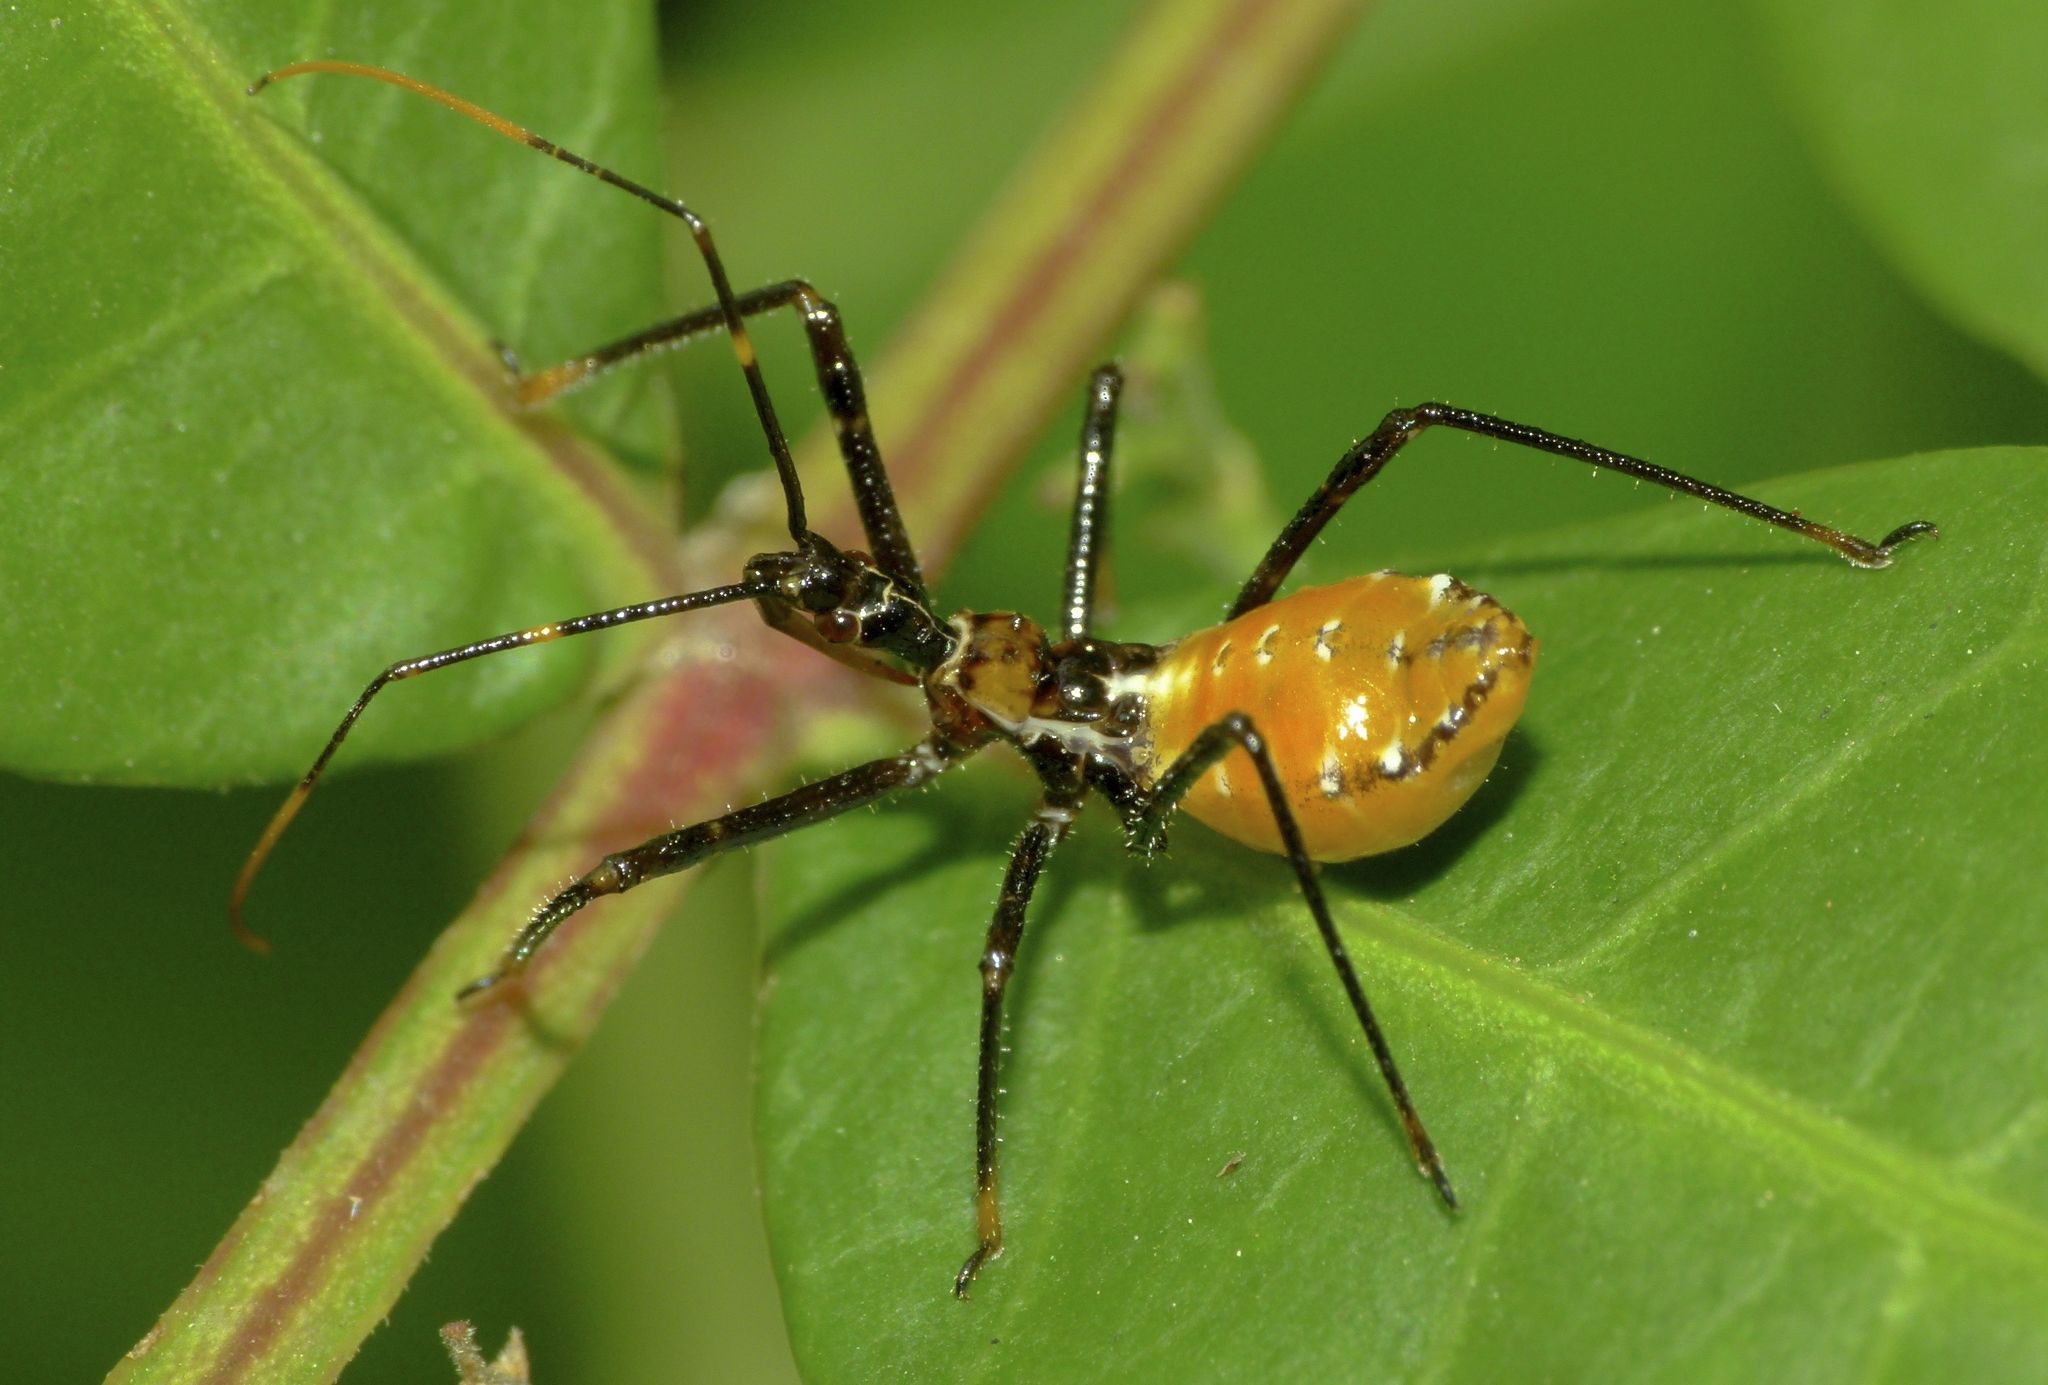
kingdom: Animalia
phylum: Arthropoda
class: Insecta
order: Hemiptera
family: Reduviidae
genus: Pristhesancus
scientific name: Pristhesancus plagipennis
